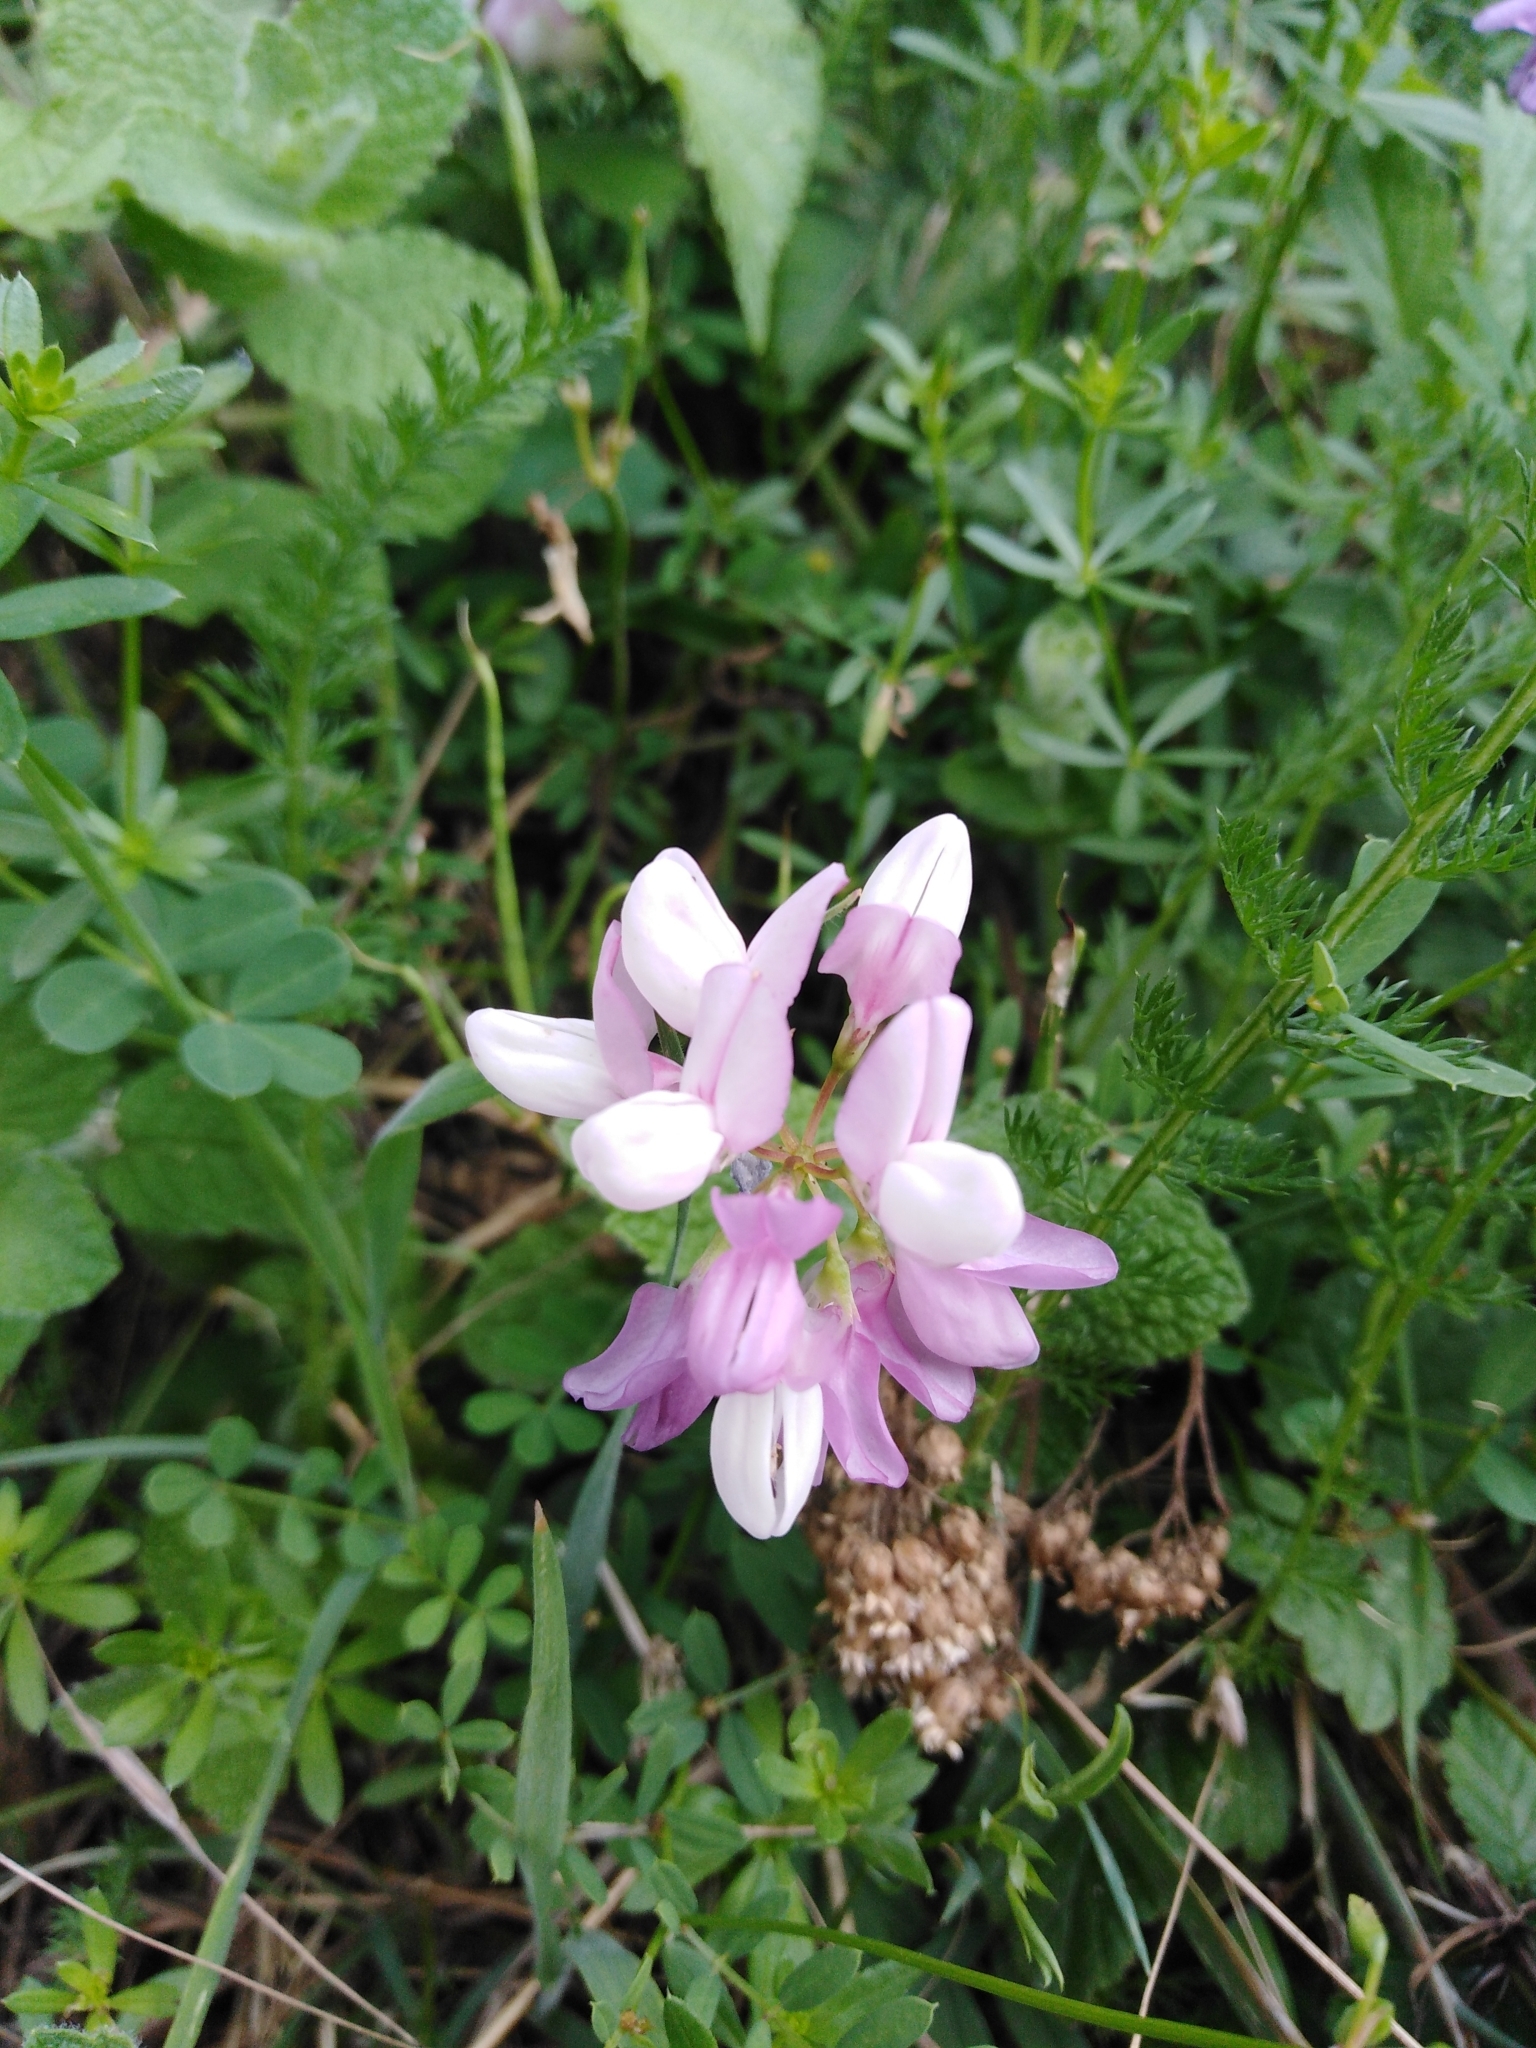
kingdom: Plantae
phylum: Tracheophyta
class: Magnoliopsida
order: Fabales
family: Fabaceae
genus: Coronilla
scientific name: Coronilla varia
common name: Crownvetch
